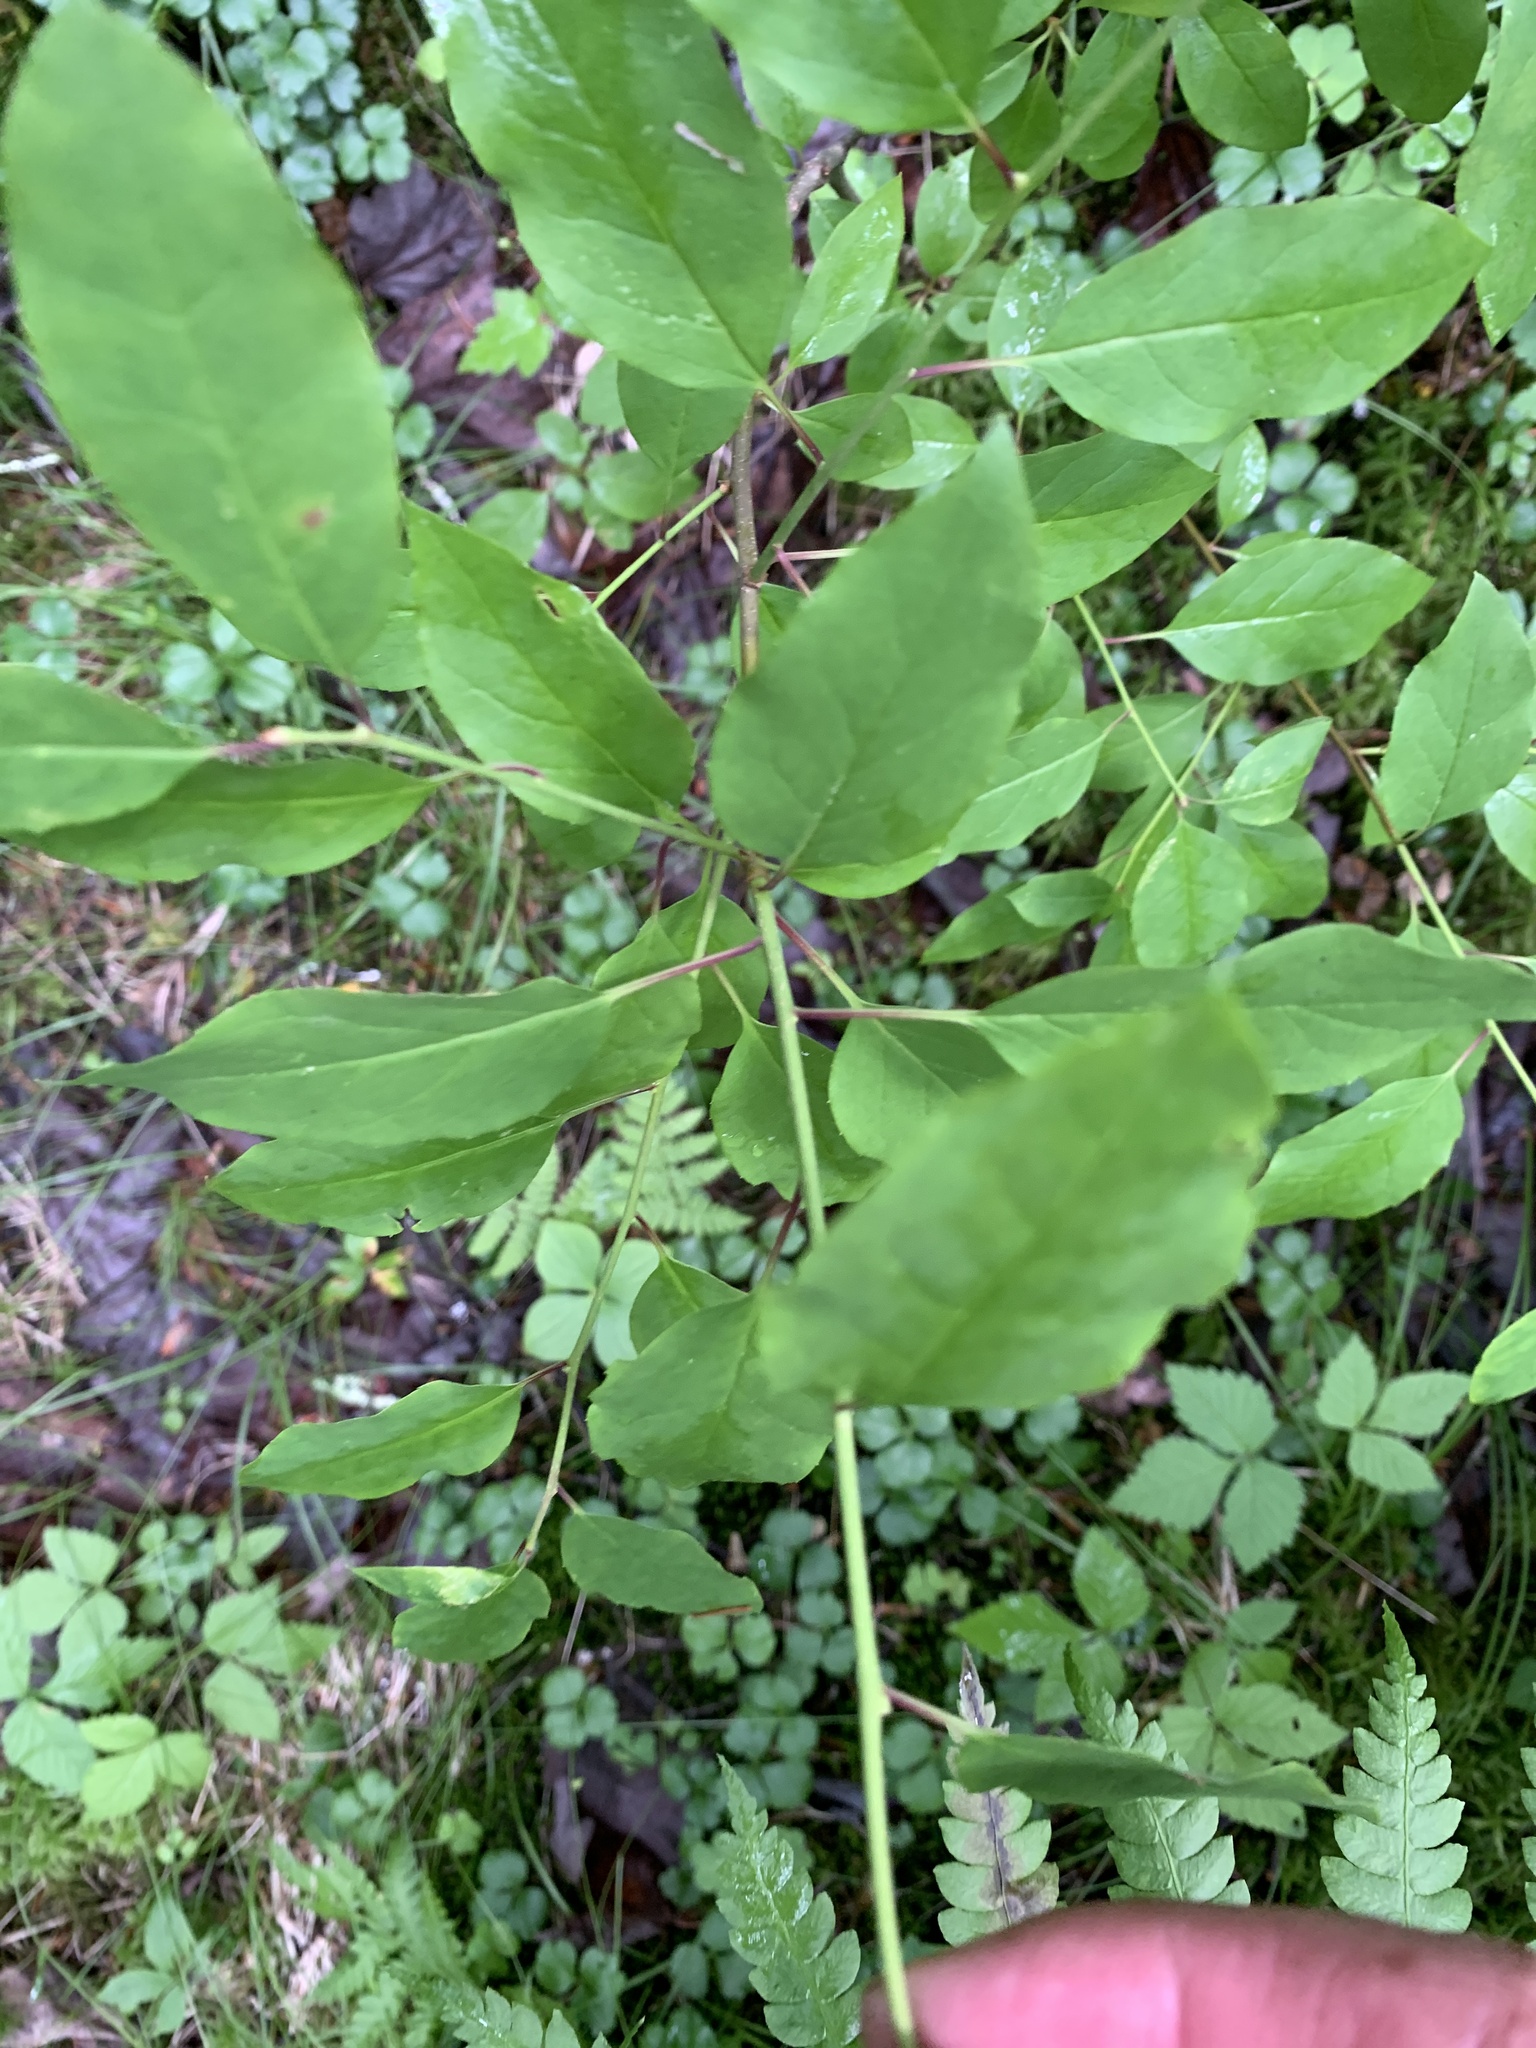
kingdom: Plantae
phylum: Tracheophyta
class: Magnoliopsida
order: Aquifoliales
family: Aquifoliaceae
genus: Ilex
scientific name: Ilex mucronata
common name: Catberry
